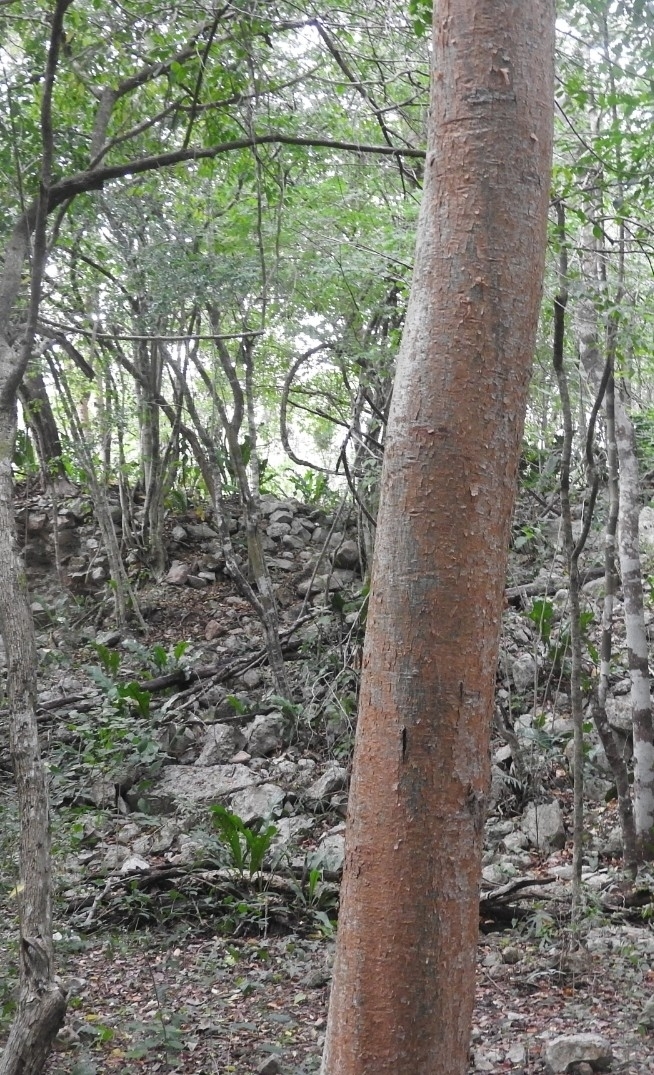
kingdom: Plantae
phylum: Tracheophyta
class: Magnoliopsida
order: Sapindales
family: Burseraceae
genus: Bursera
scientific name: Bursera simaruba
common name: Turpentine tree
